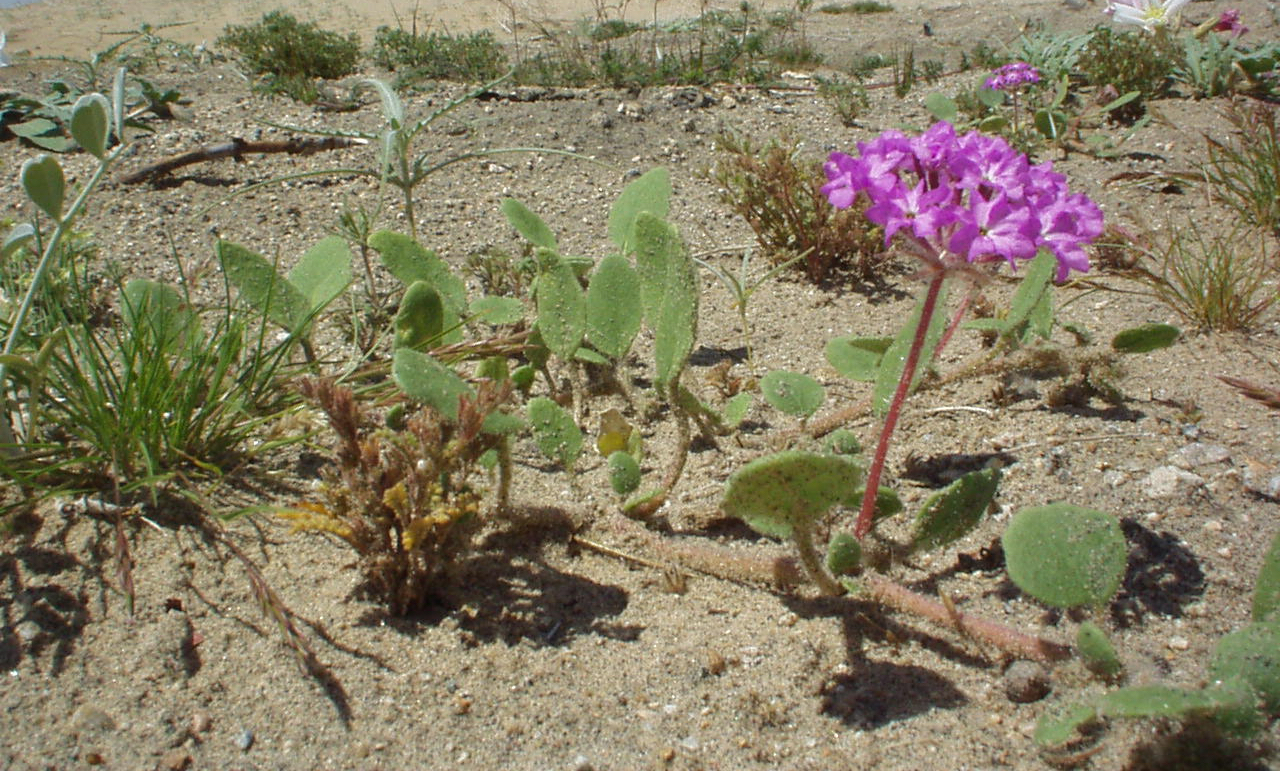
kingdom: Plantae
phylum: Tracheophyta
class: Magnoliopsida
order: Caryophyllales
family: Nyctaginaceae
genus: Abronia
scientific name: Abronia villosa
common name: Desert sand-verbena
